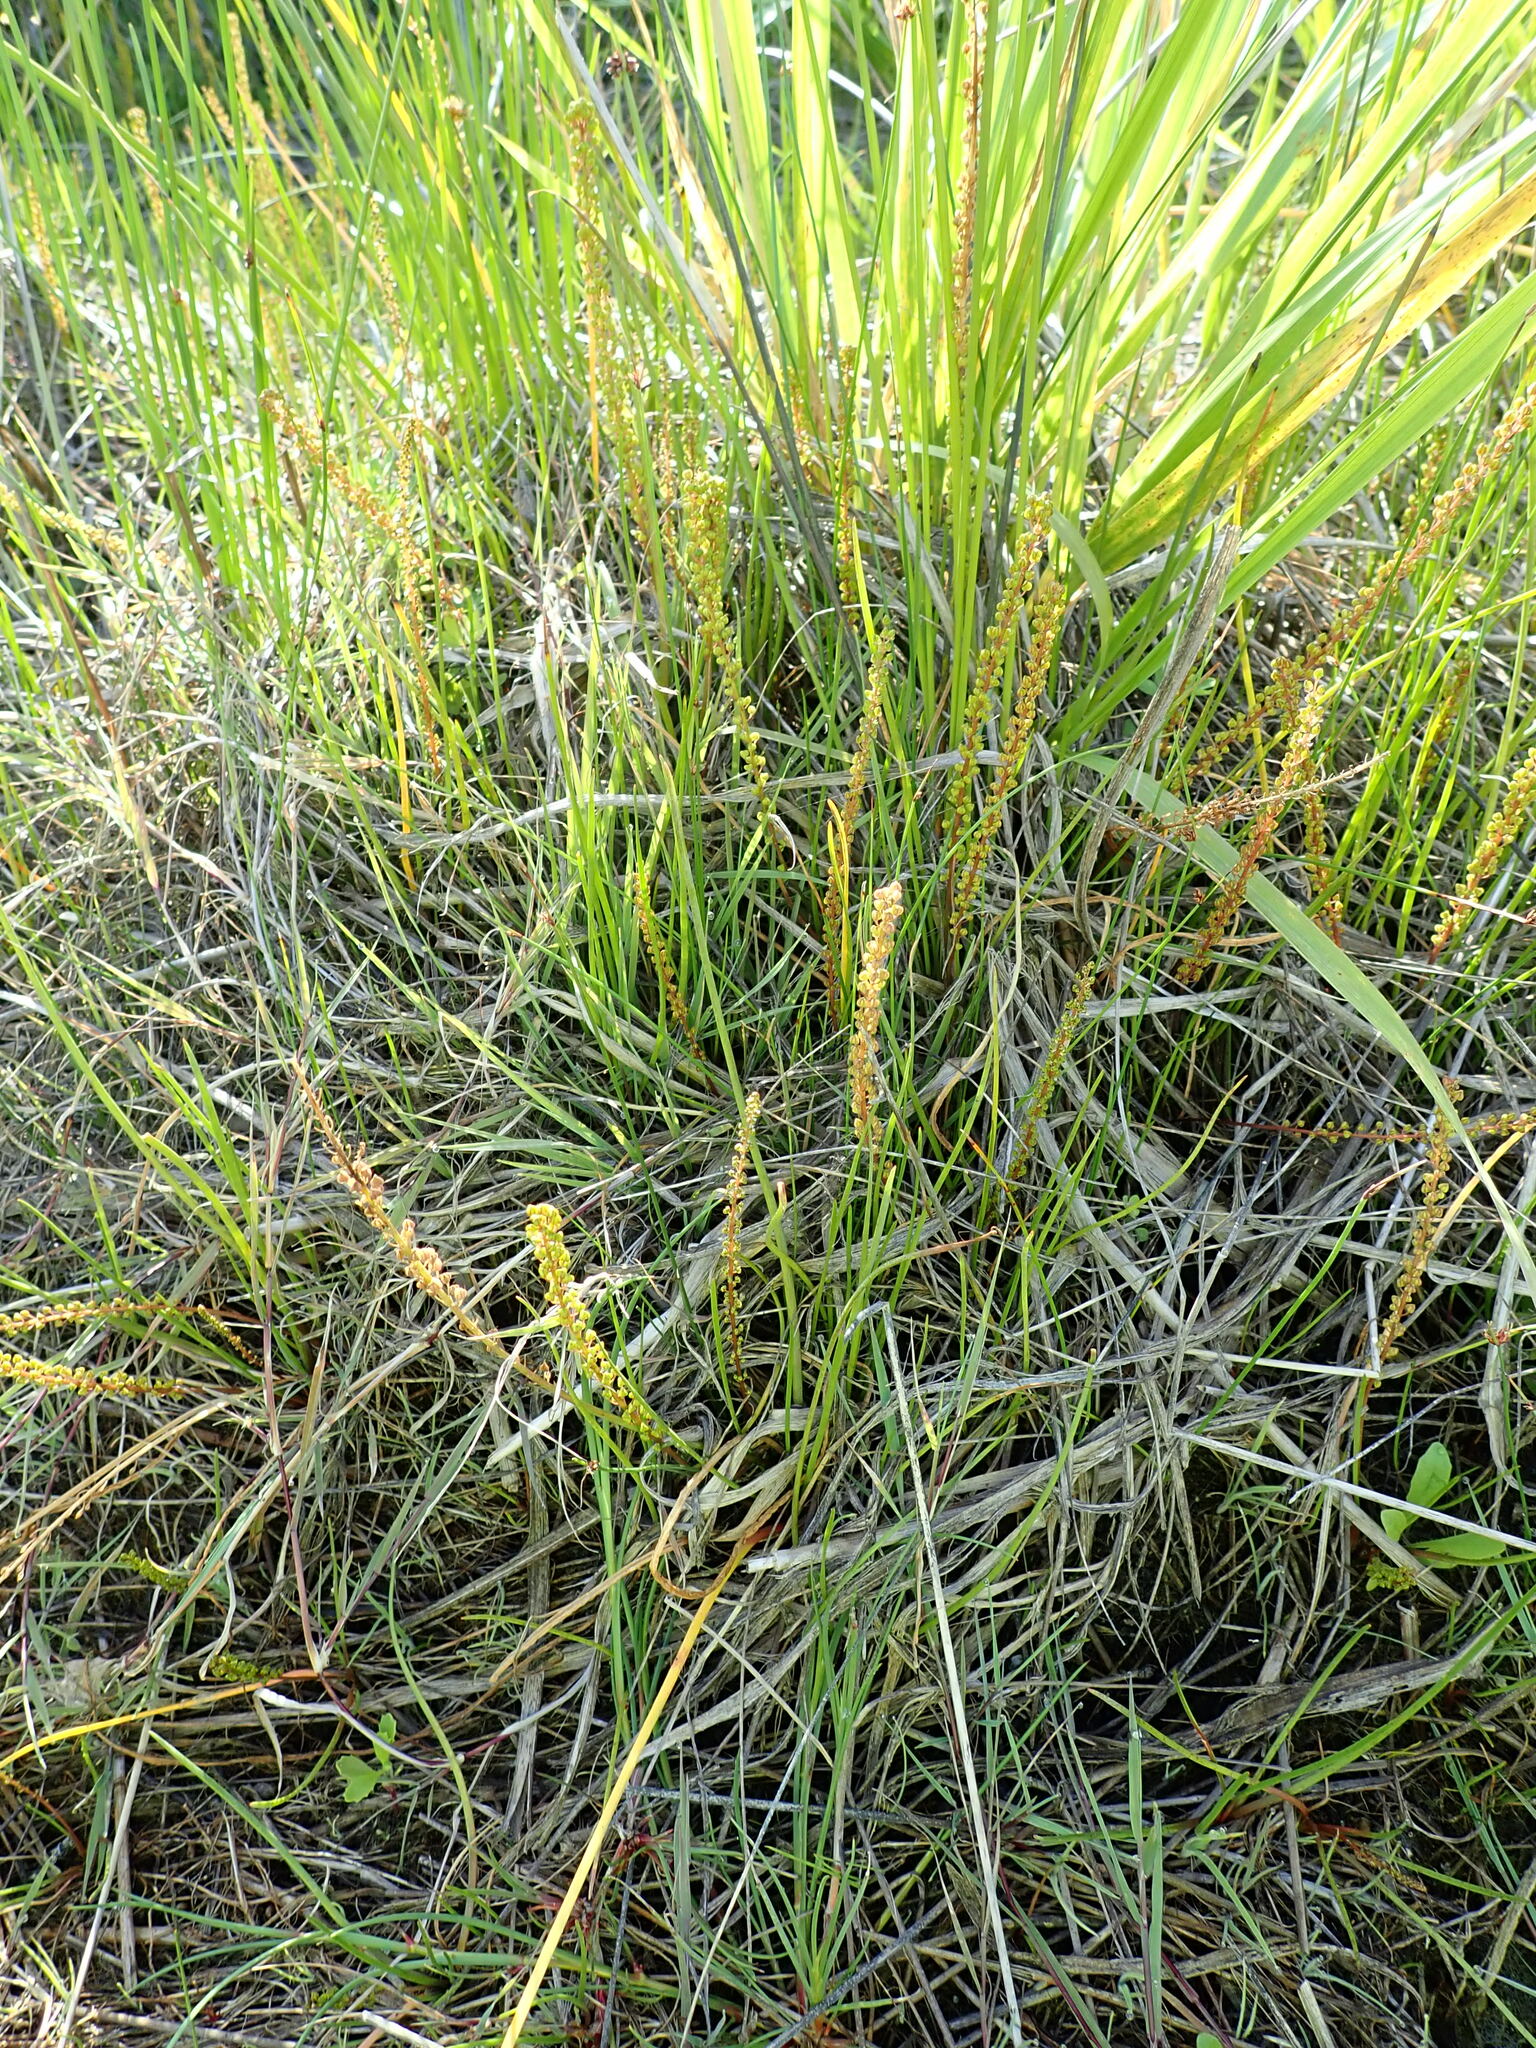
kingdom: Plantae
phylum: Tracheophyta
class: Liliopsida
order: Alismatales
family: Juncaginaceae
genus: Triglochin
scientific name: Triglochin striata
